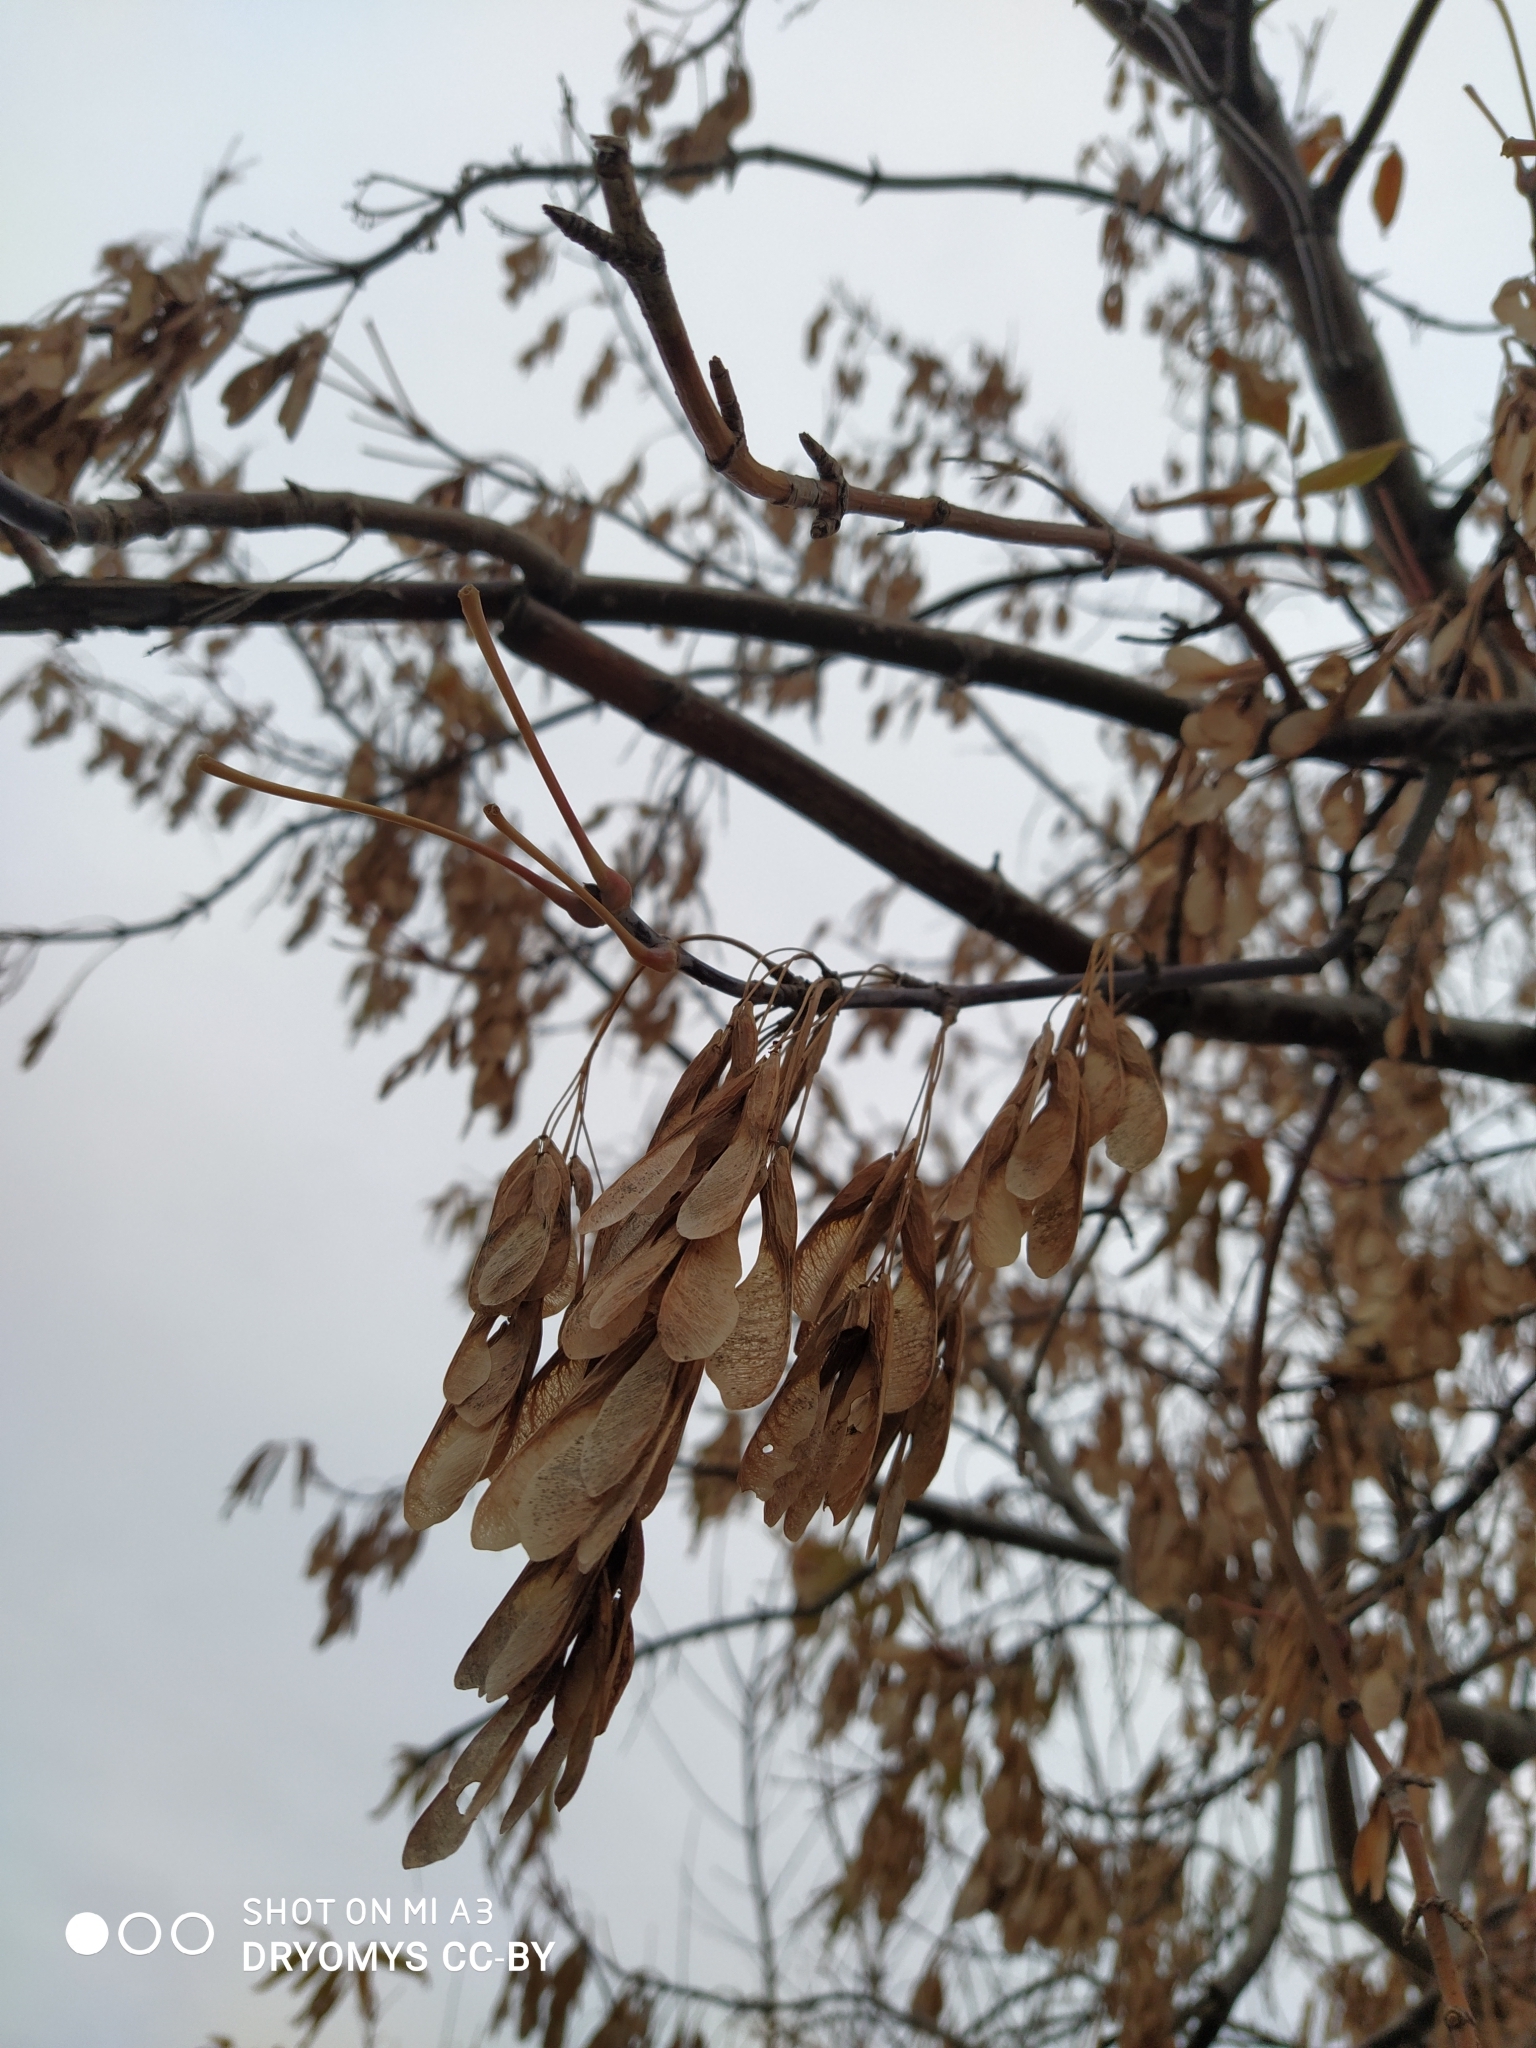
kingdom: Plantae
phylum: Tracheophyta
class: Magnoliopsida
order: Sapindales
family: Sapindaceae
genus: Acer
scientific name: Acer negundo
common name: Ashleaf maple
